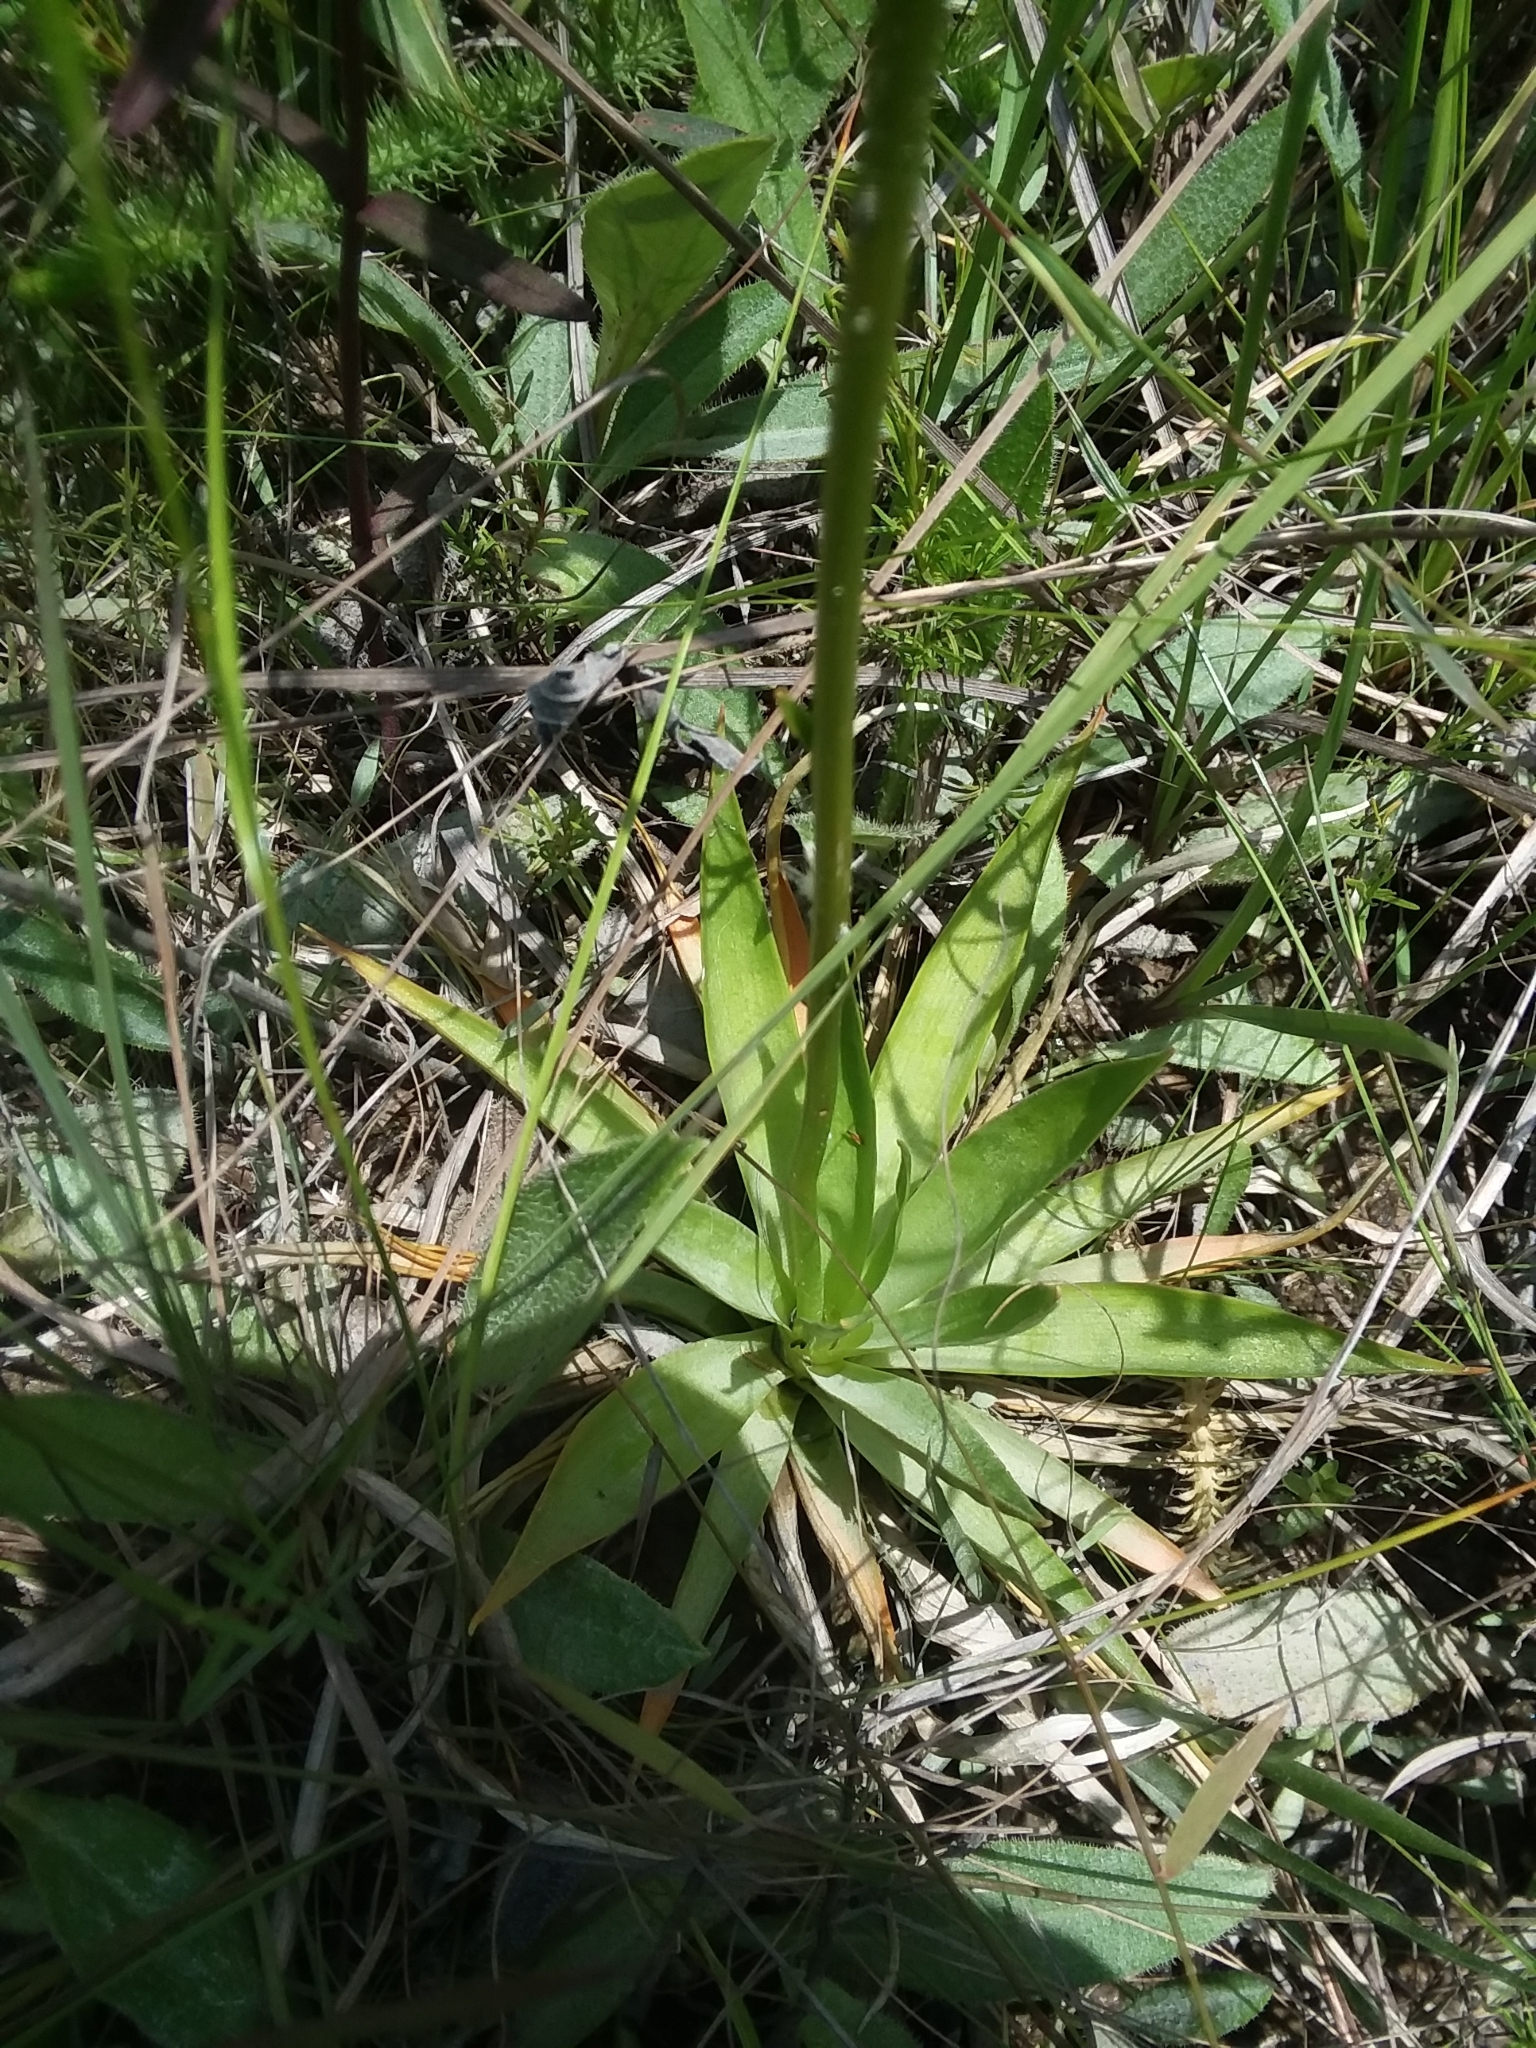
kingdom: Plantae
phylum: Tracheophyta
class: Liliopsida
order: Dioscoreales
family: Nartheciaceae
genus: Aletris
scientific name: Aletris lutea
